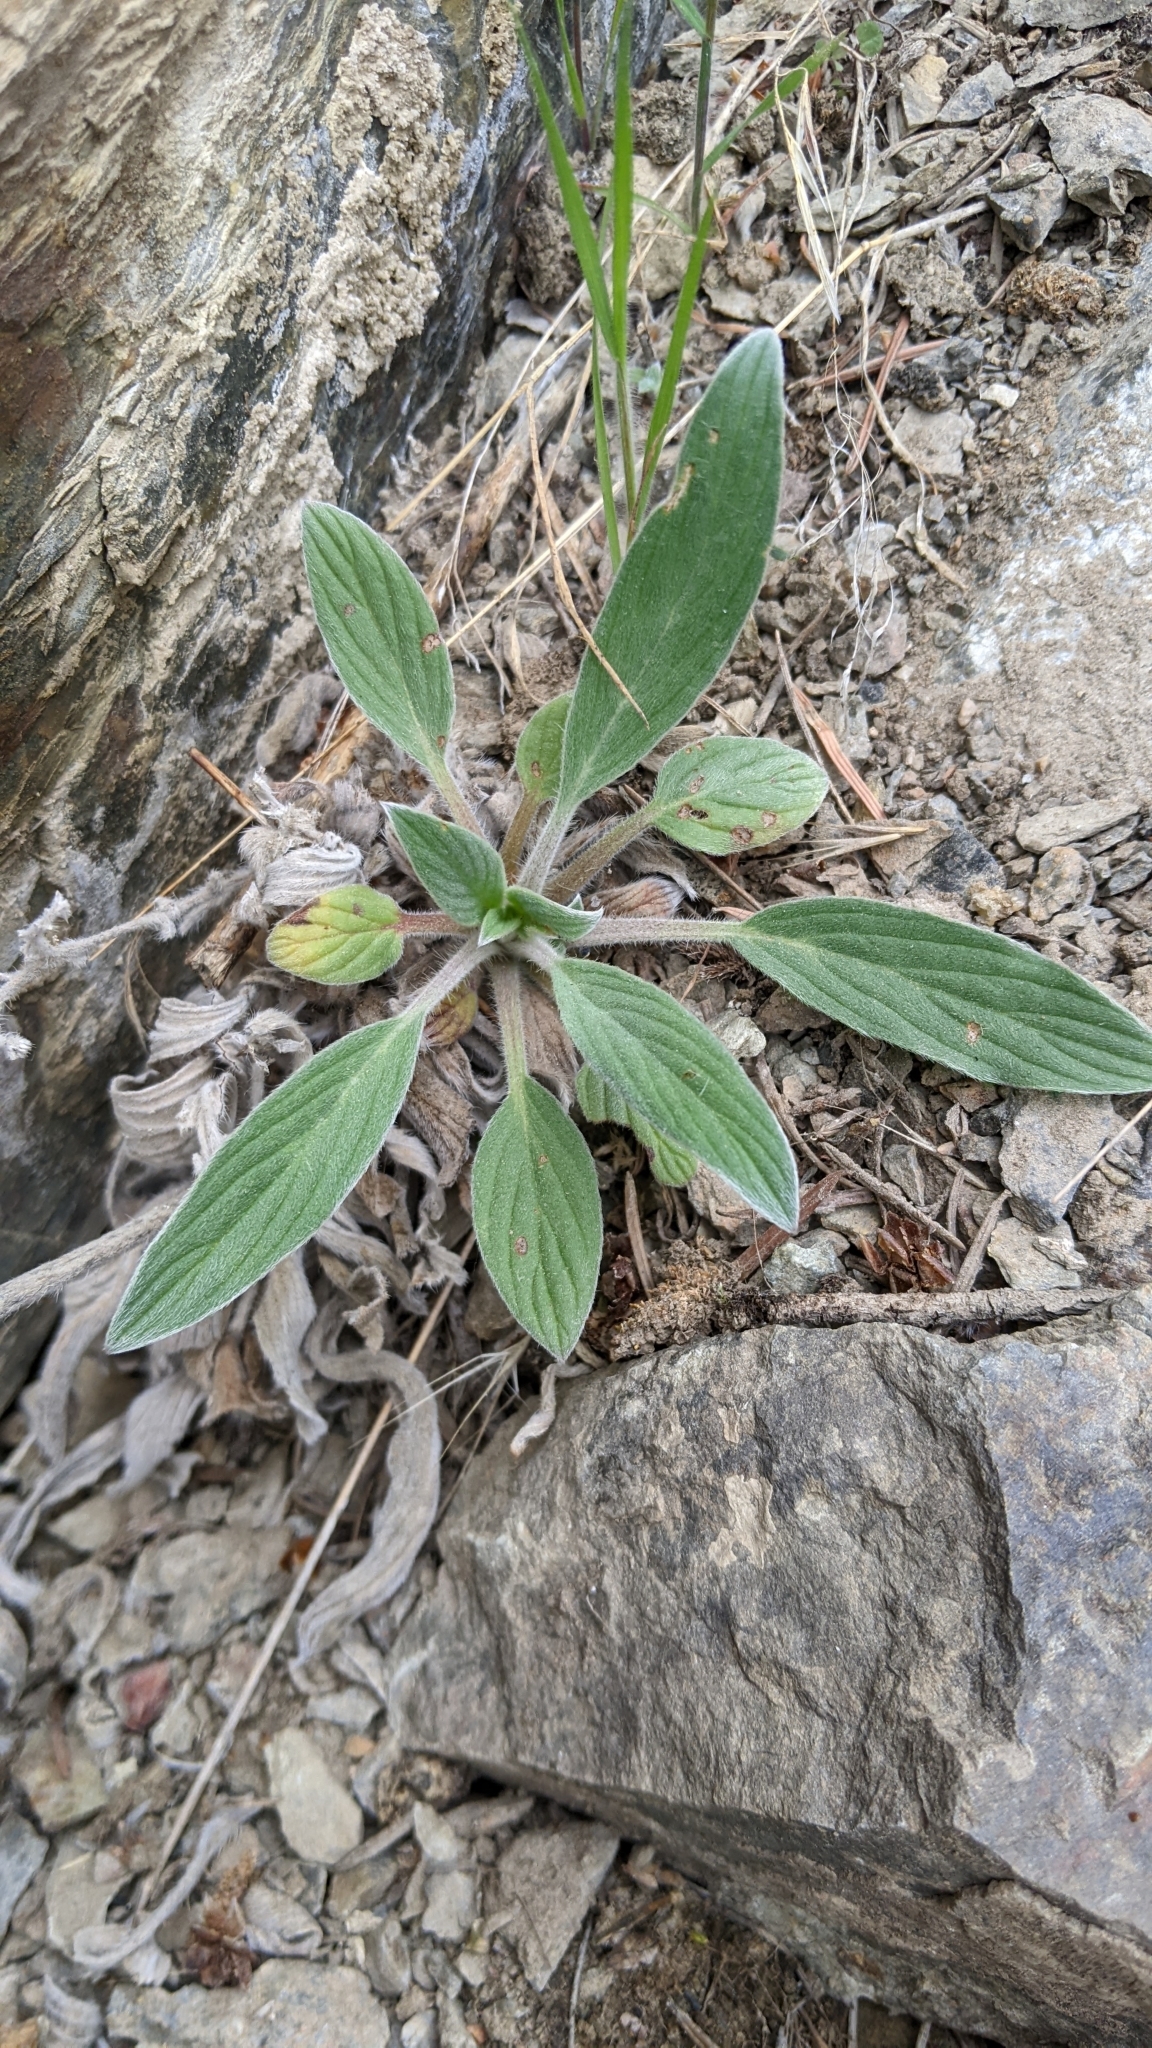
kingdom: Plantae
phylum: Tracheophyta
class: Magnoliopsida
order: Boraginales
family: Hydrophyllaceae
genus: Phacelia
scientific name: Phacelia hastata
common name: Silver-leaved phacelia
